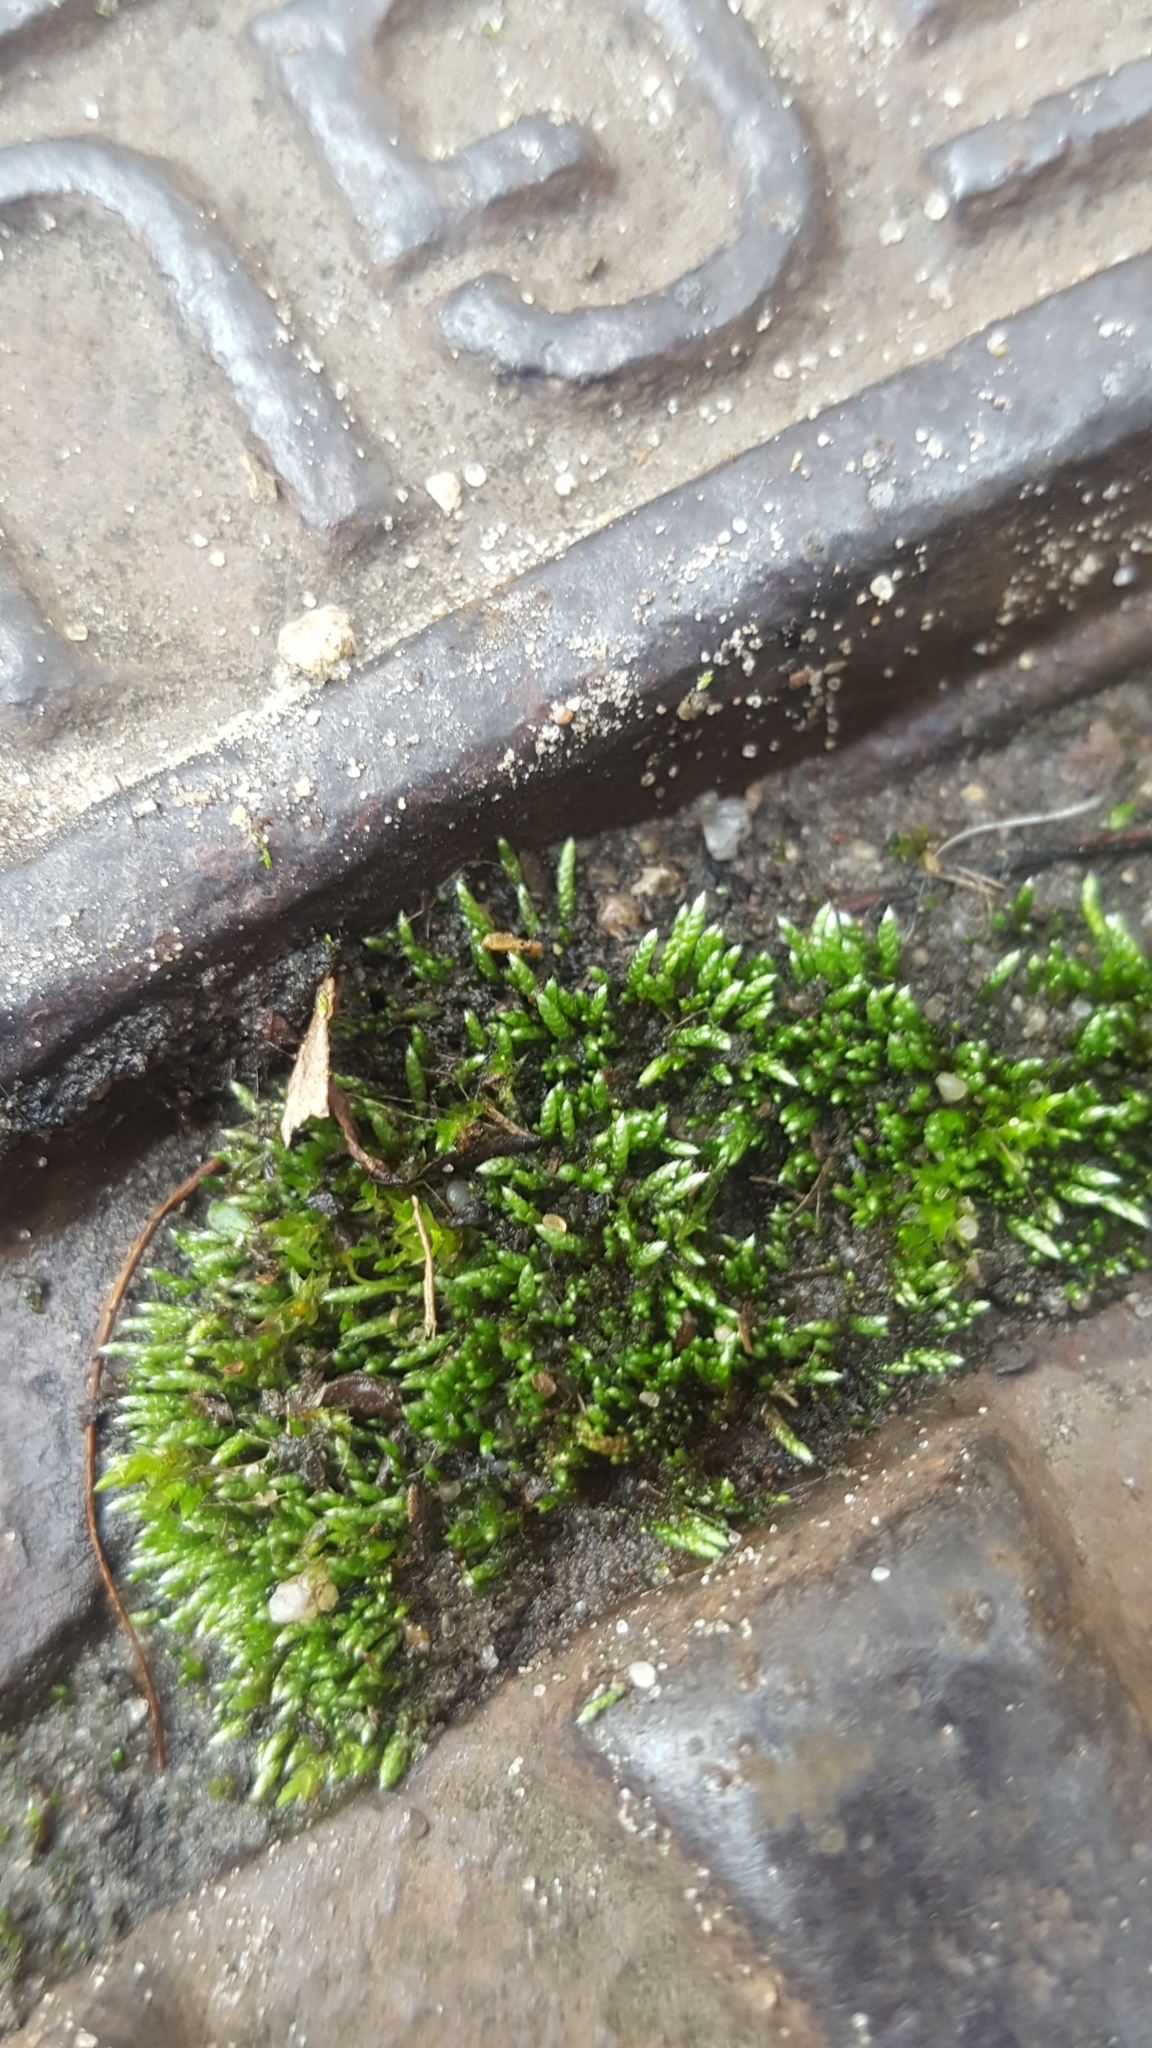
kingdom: Plantae
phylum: Bryophyta
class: Bryopsida
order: Bryales
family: Bryaceae
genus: Bryum
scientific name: Bryum argenteum
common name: Silver-moss
